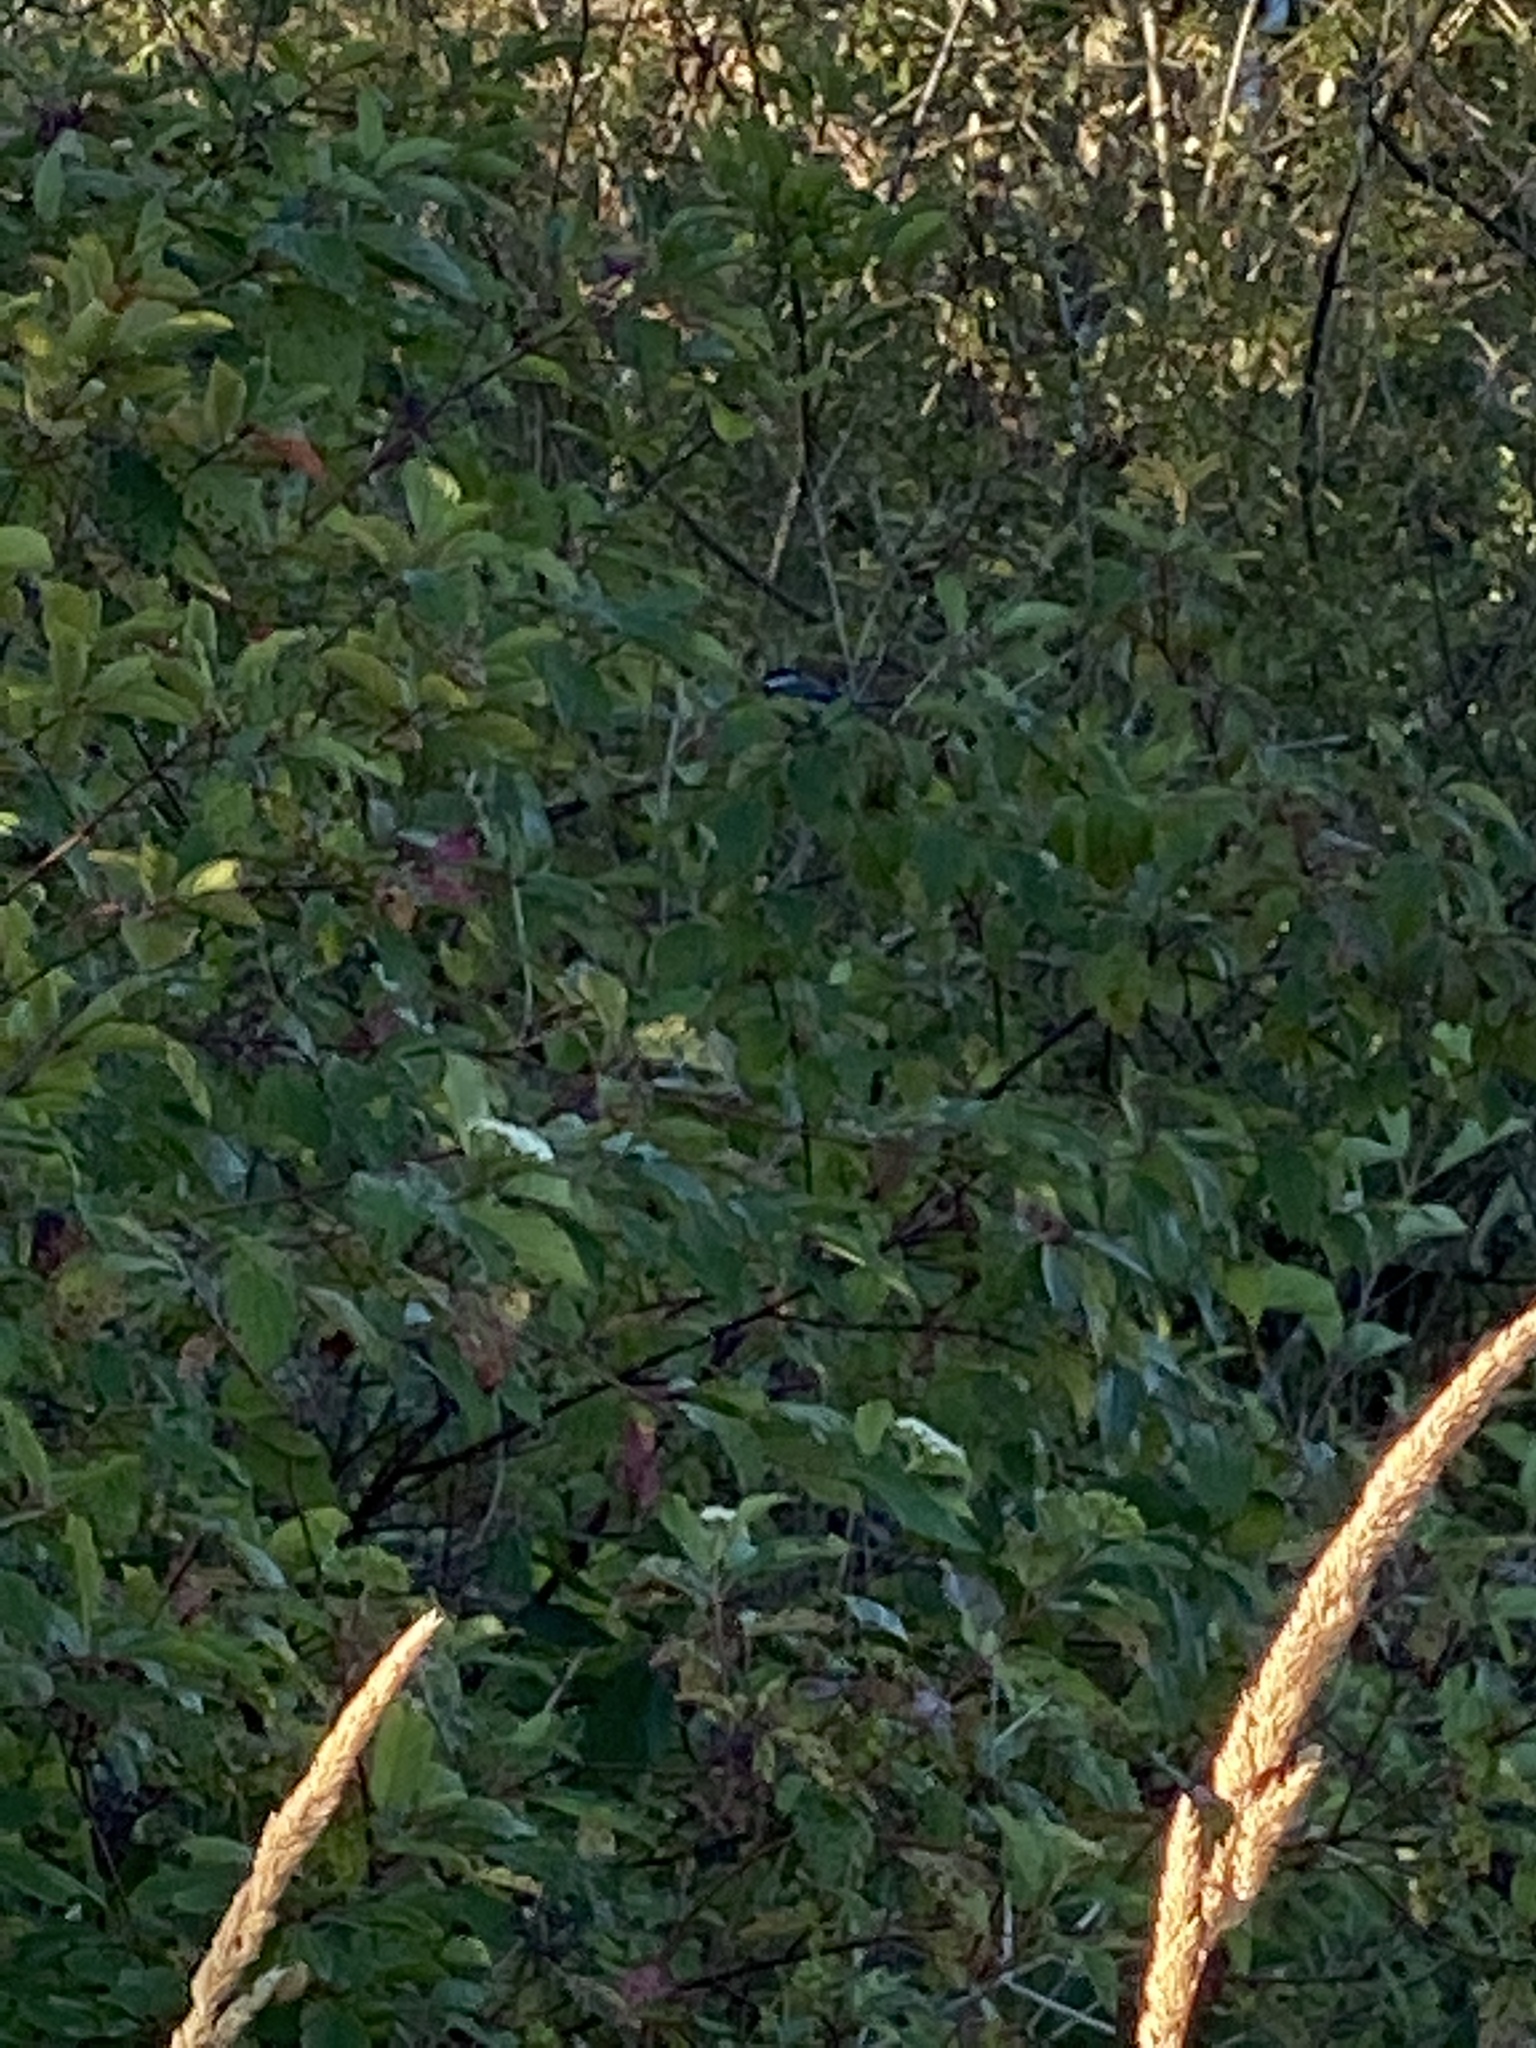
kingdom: Animalia
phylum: Chordata
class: Aves
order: Passeriformes
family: Paridae
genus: Poecile
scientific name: Poecile atricapillus
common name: Black-capped chickadee
